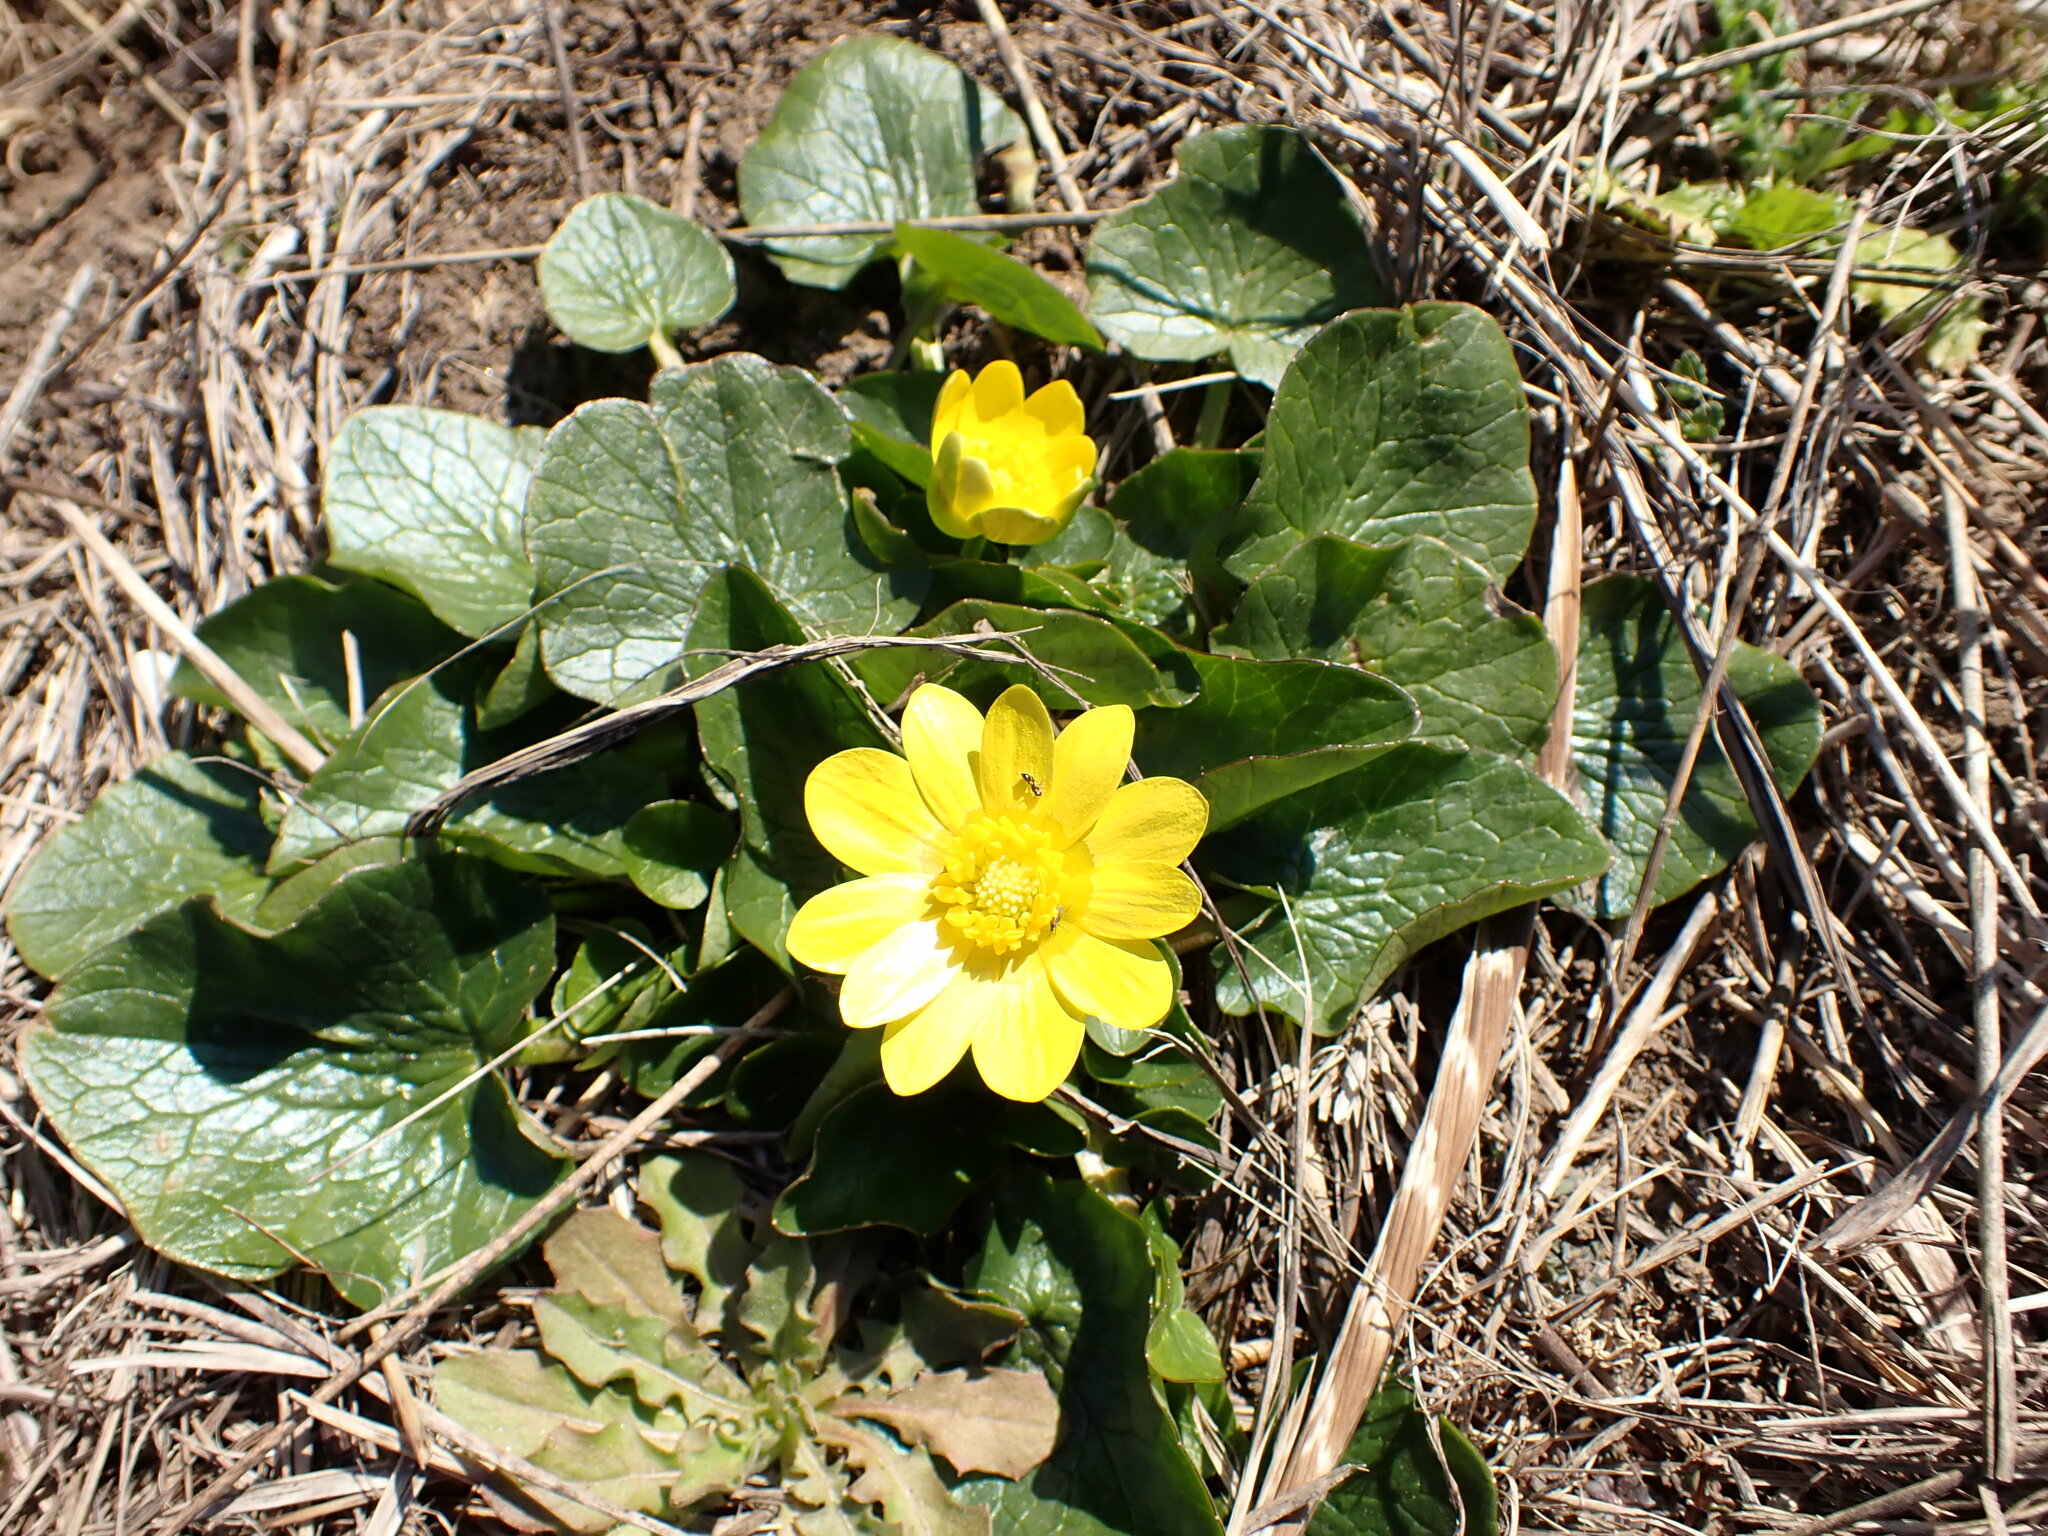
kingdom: Plantae
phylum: Tracheophyta
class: Magnoliopsida
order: Ranunculales
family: Ranunculaceae
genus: Ficaria
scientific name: Ficaria verna
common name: Lesser celandine
